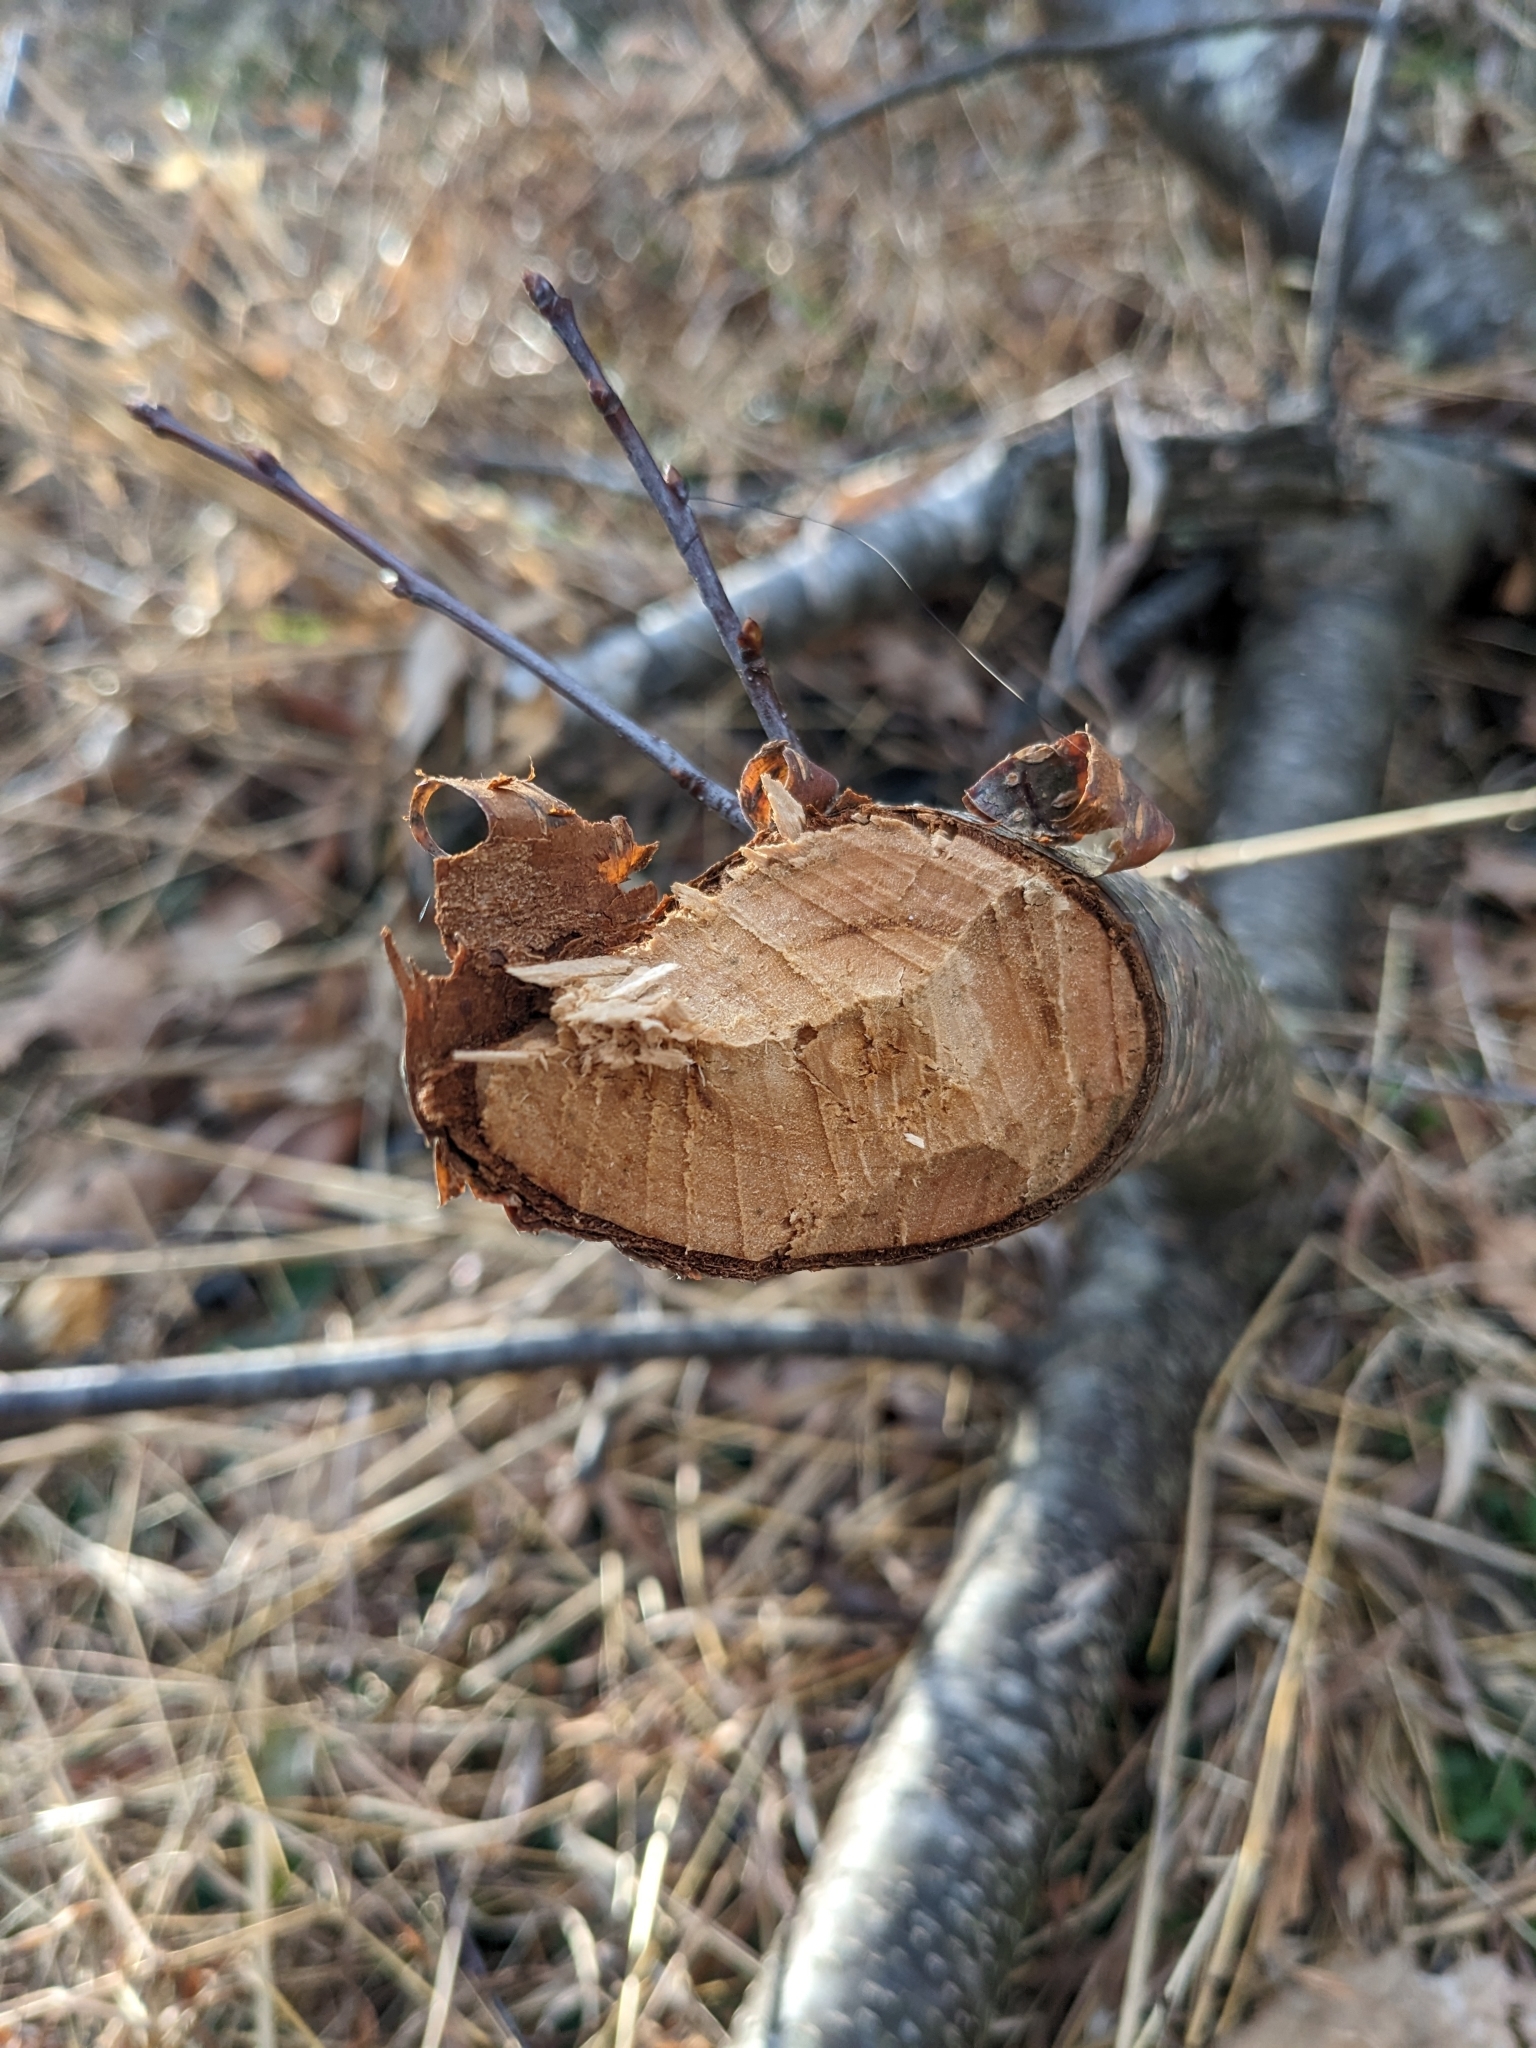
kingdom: Animalia
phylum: Chordata
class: Mammalia
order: Rodentia
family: Castoridae
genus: Castor
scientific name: Castor canadensis
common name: American beaver
